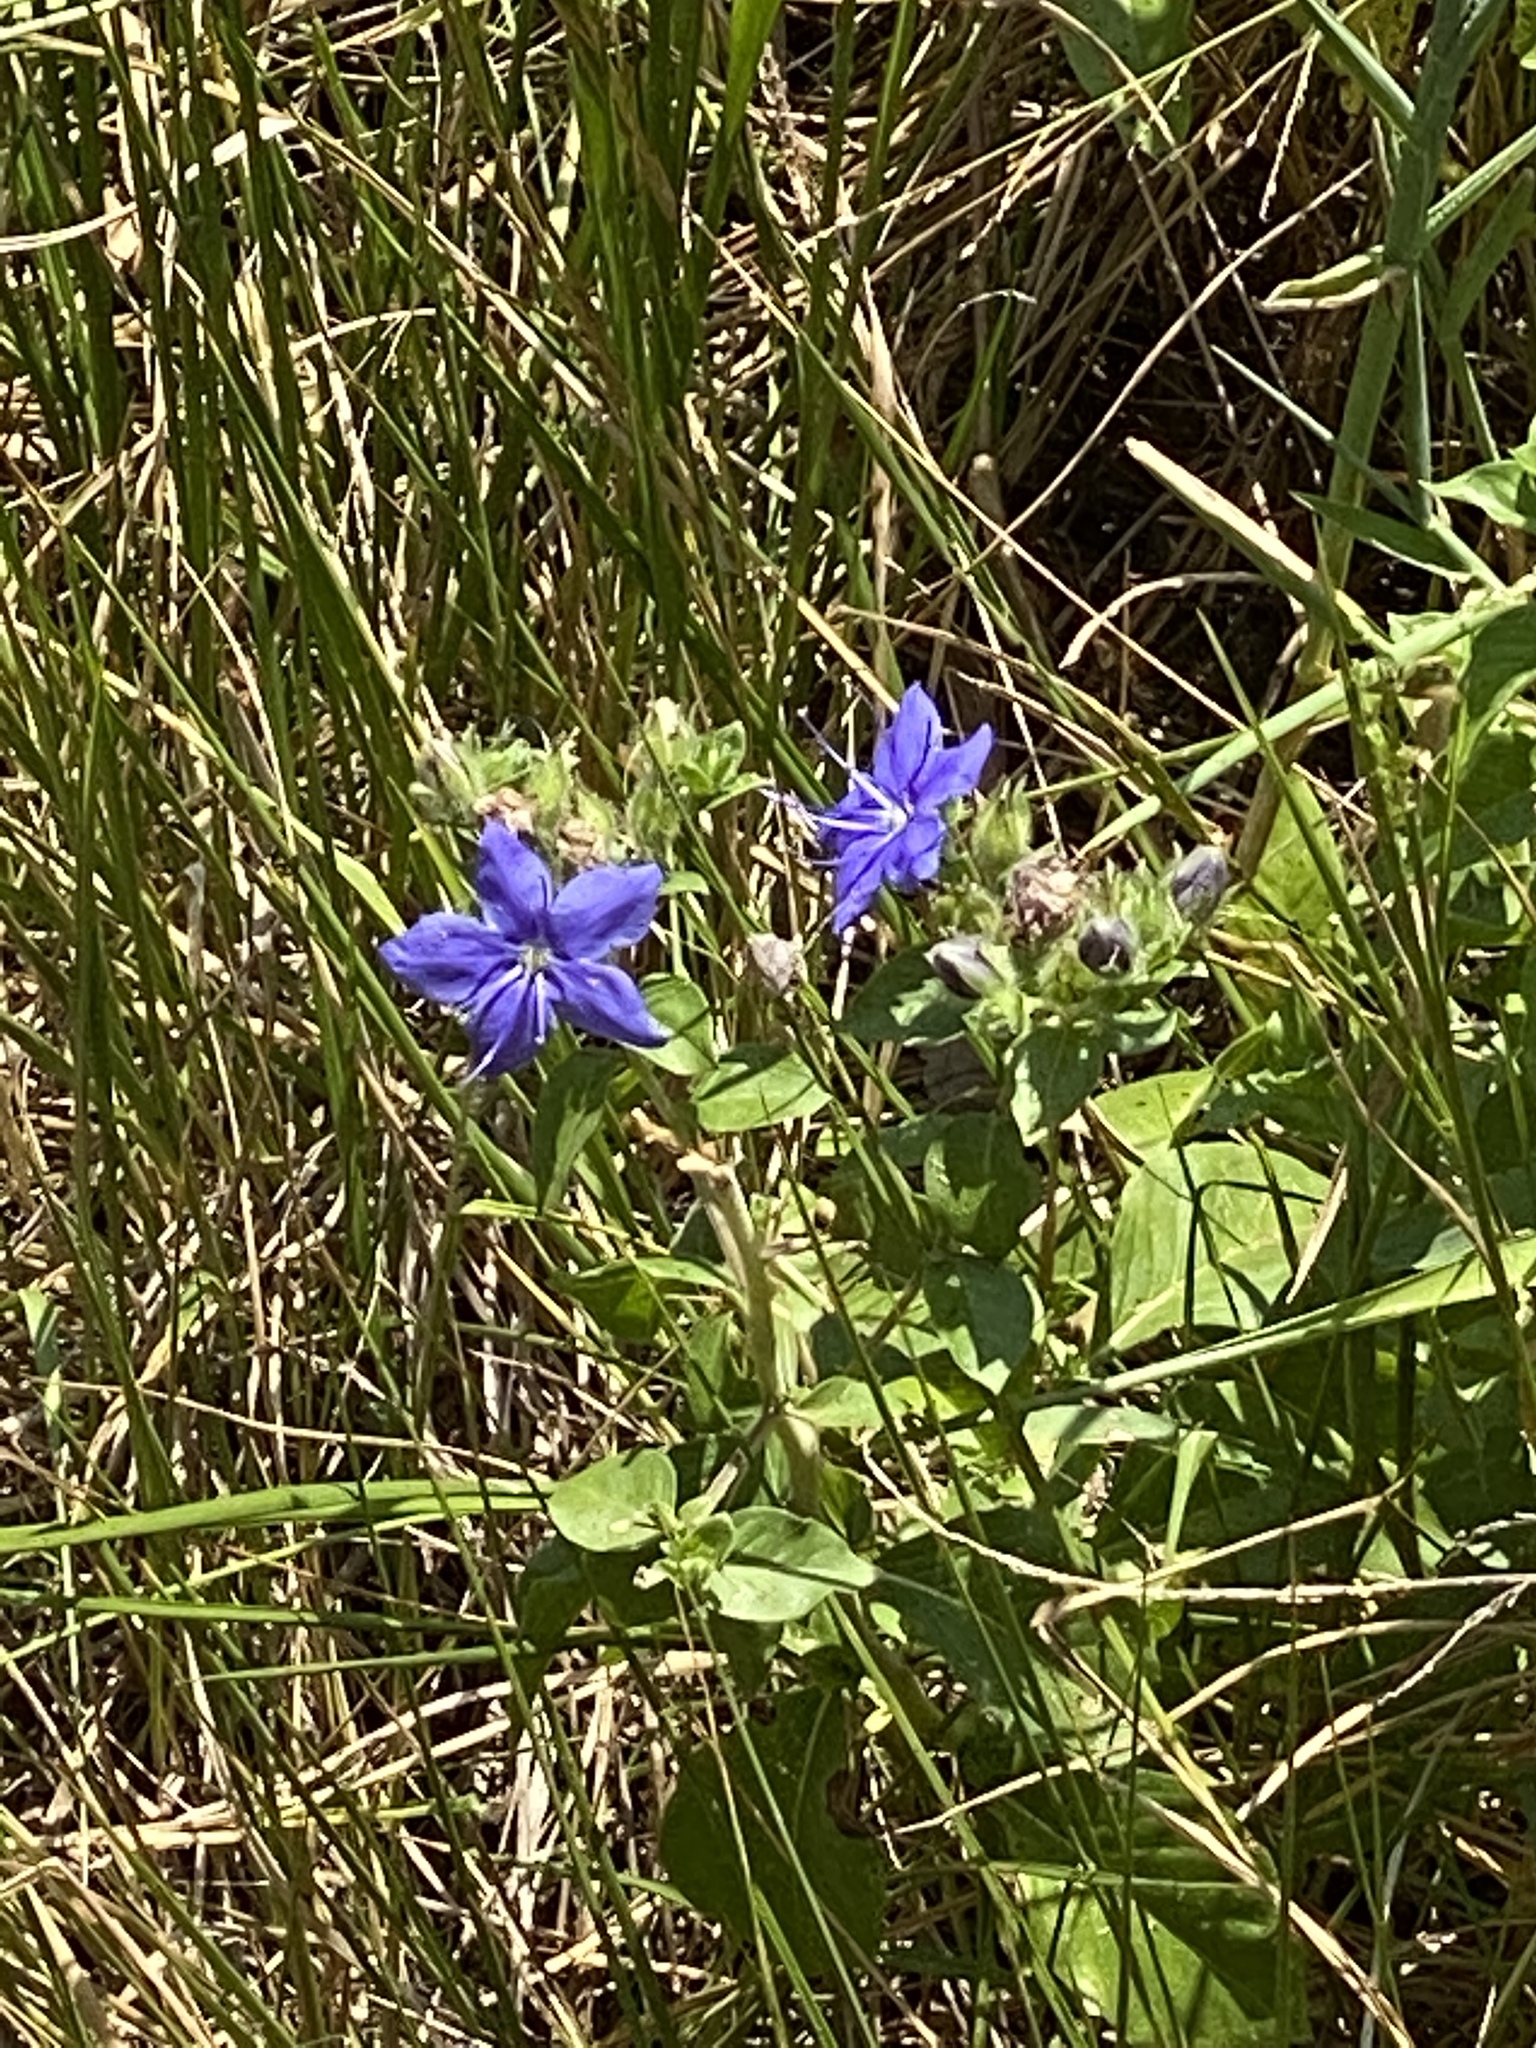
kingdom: Plantae
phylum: Tracheophyta
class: Magnoliopsida
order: Solanales
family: Hydroleaceae
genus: Hydrolea
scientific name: Hydrolea ovata
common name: Ovate false fiddleleaf
